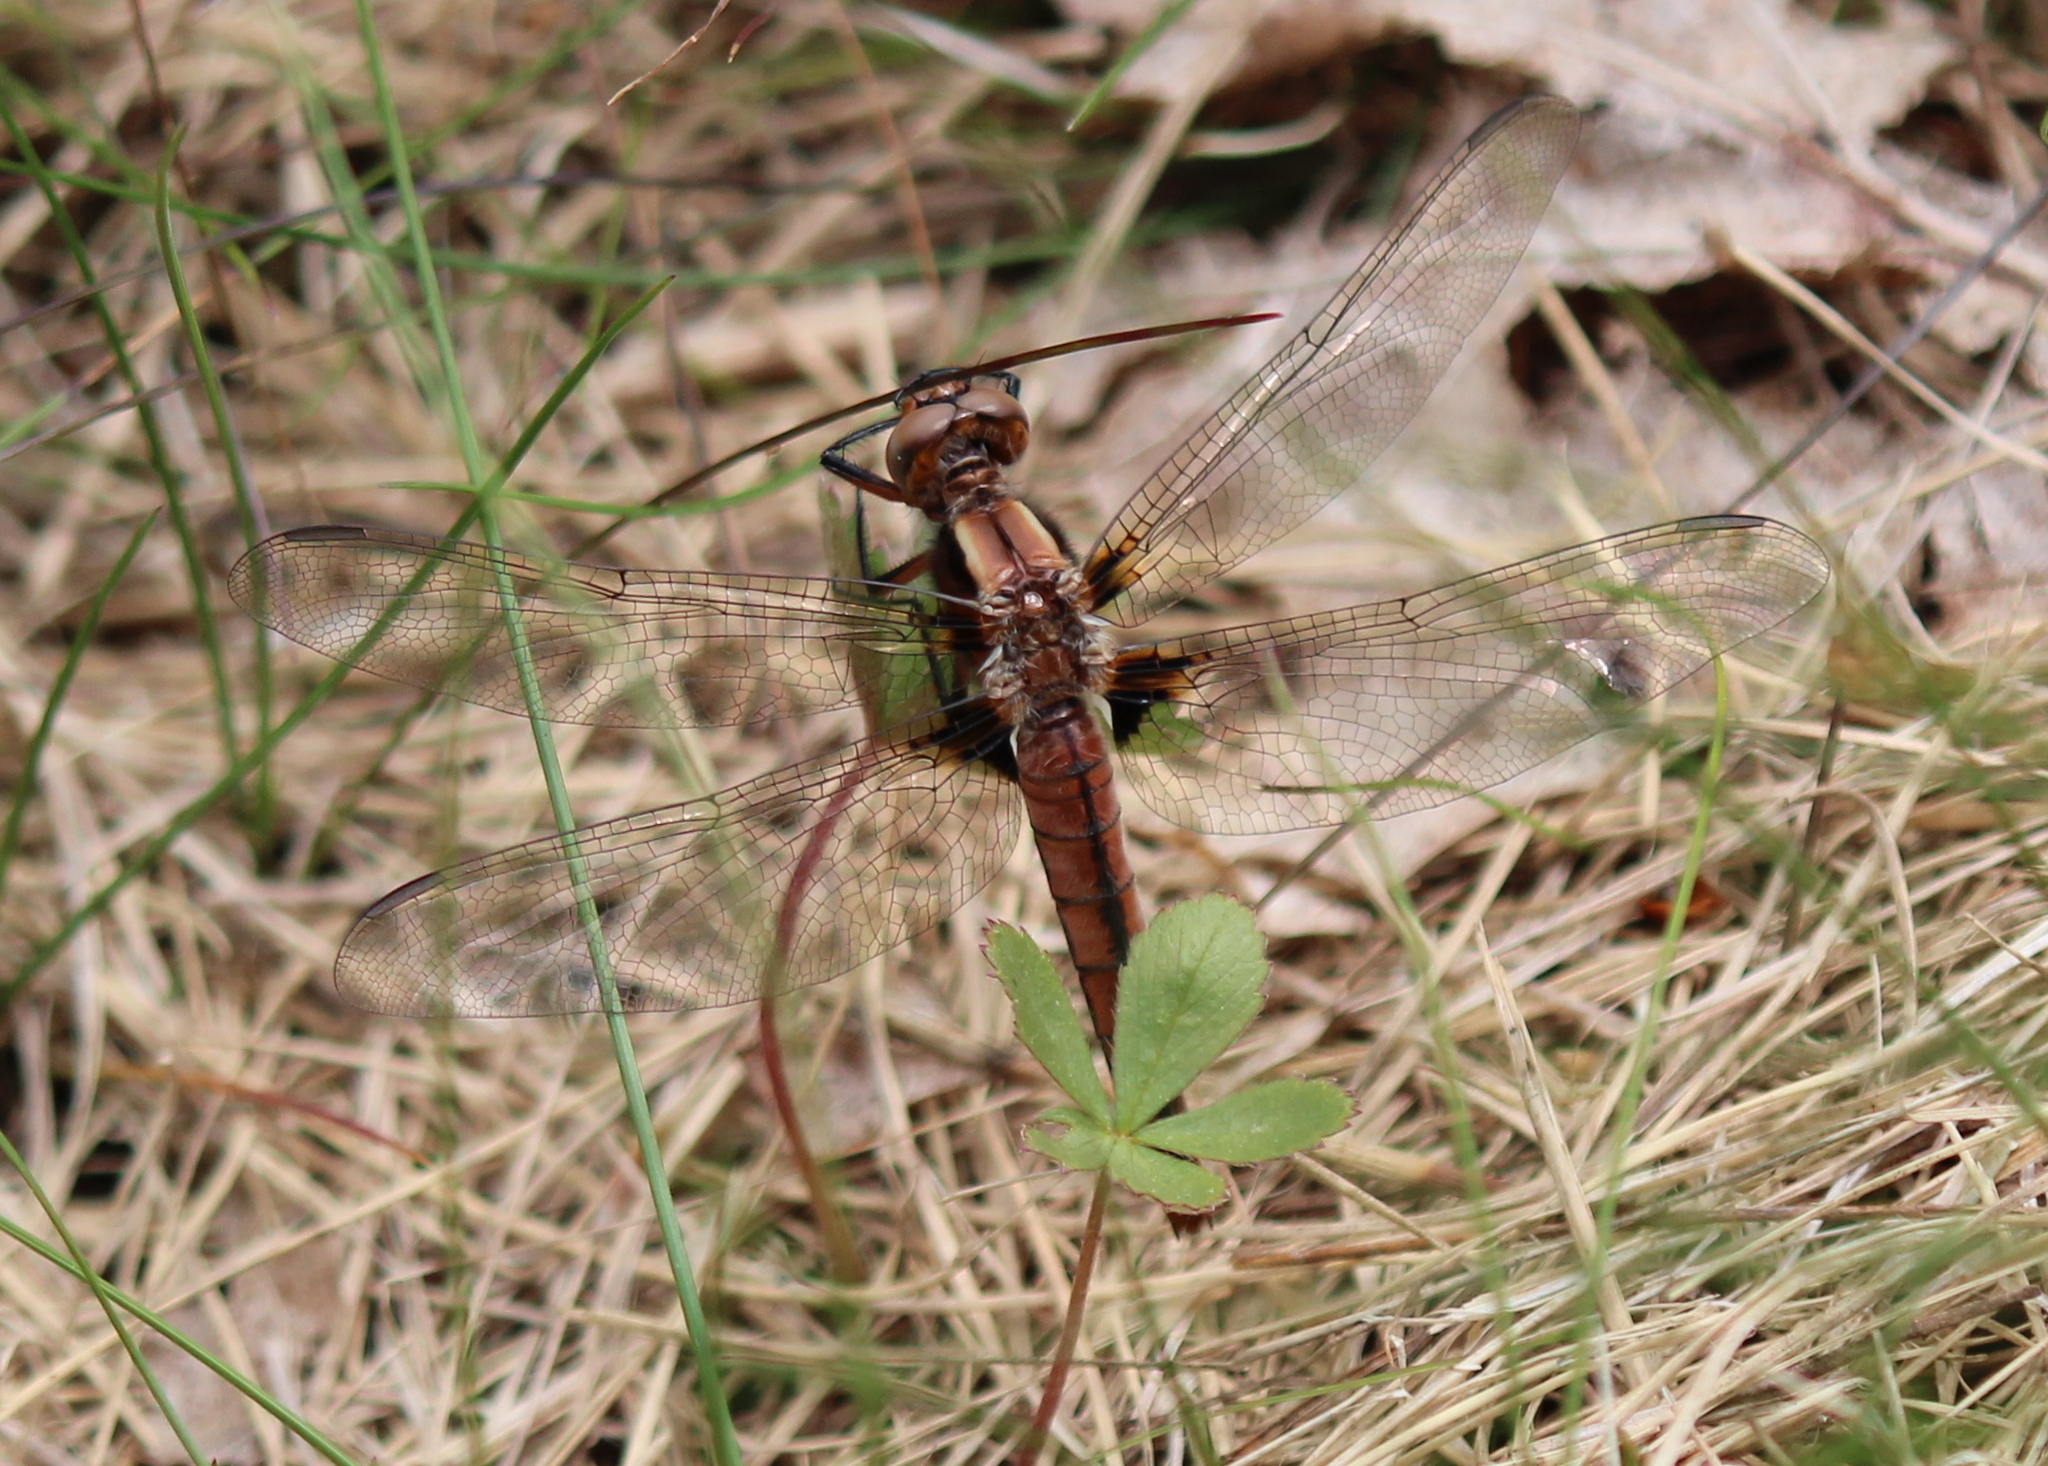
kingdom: Animalia
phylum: Arthropoda
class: Insecta
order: Odonata
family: Libellulidae
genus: Ladona
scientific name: Ladona julia
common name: Chalk-fronted corporal
